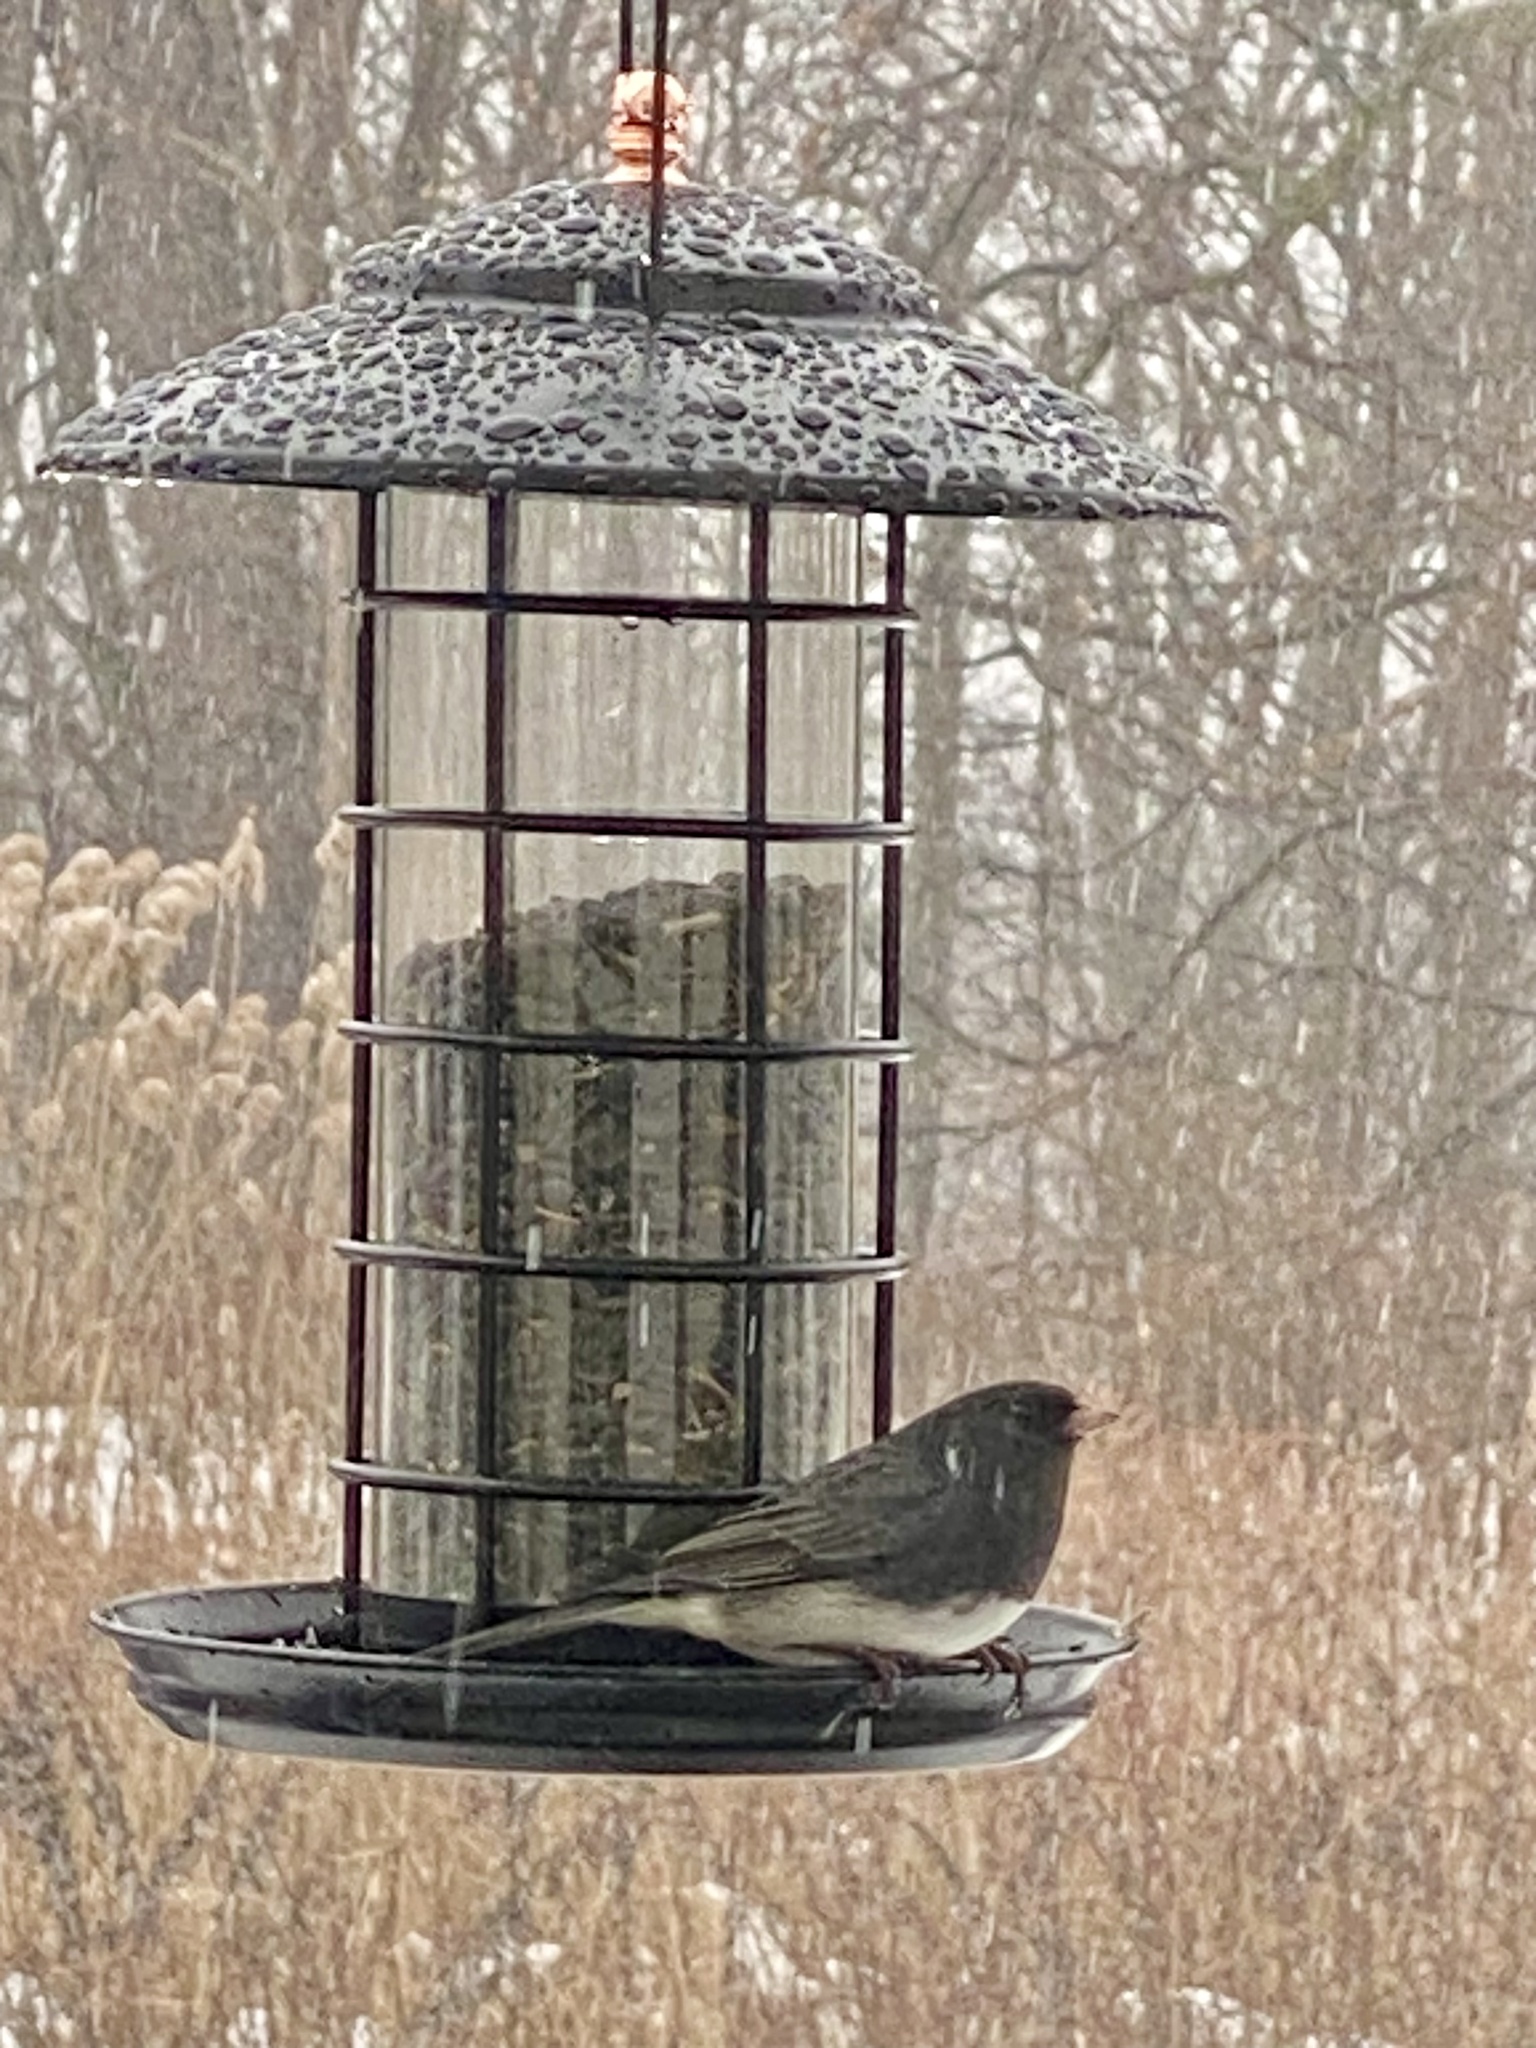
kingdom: Animalia
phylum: Chordata
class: Aves
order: Passeriformes
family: Passerellidae
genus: Junco
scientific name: Junco hyemalis
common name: Dark-eyed junco
